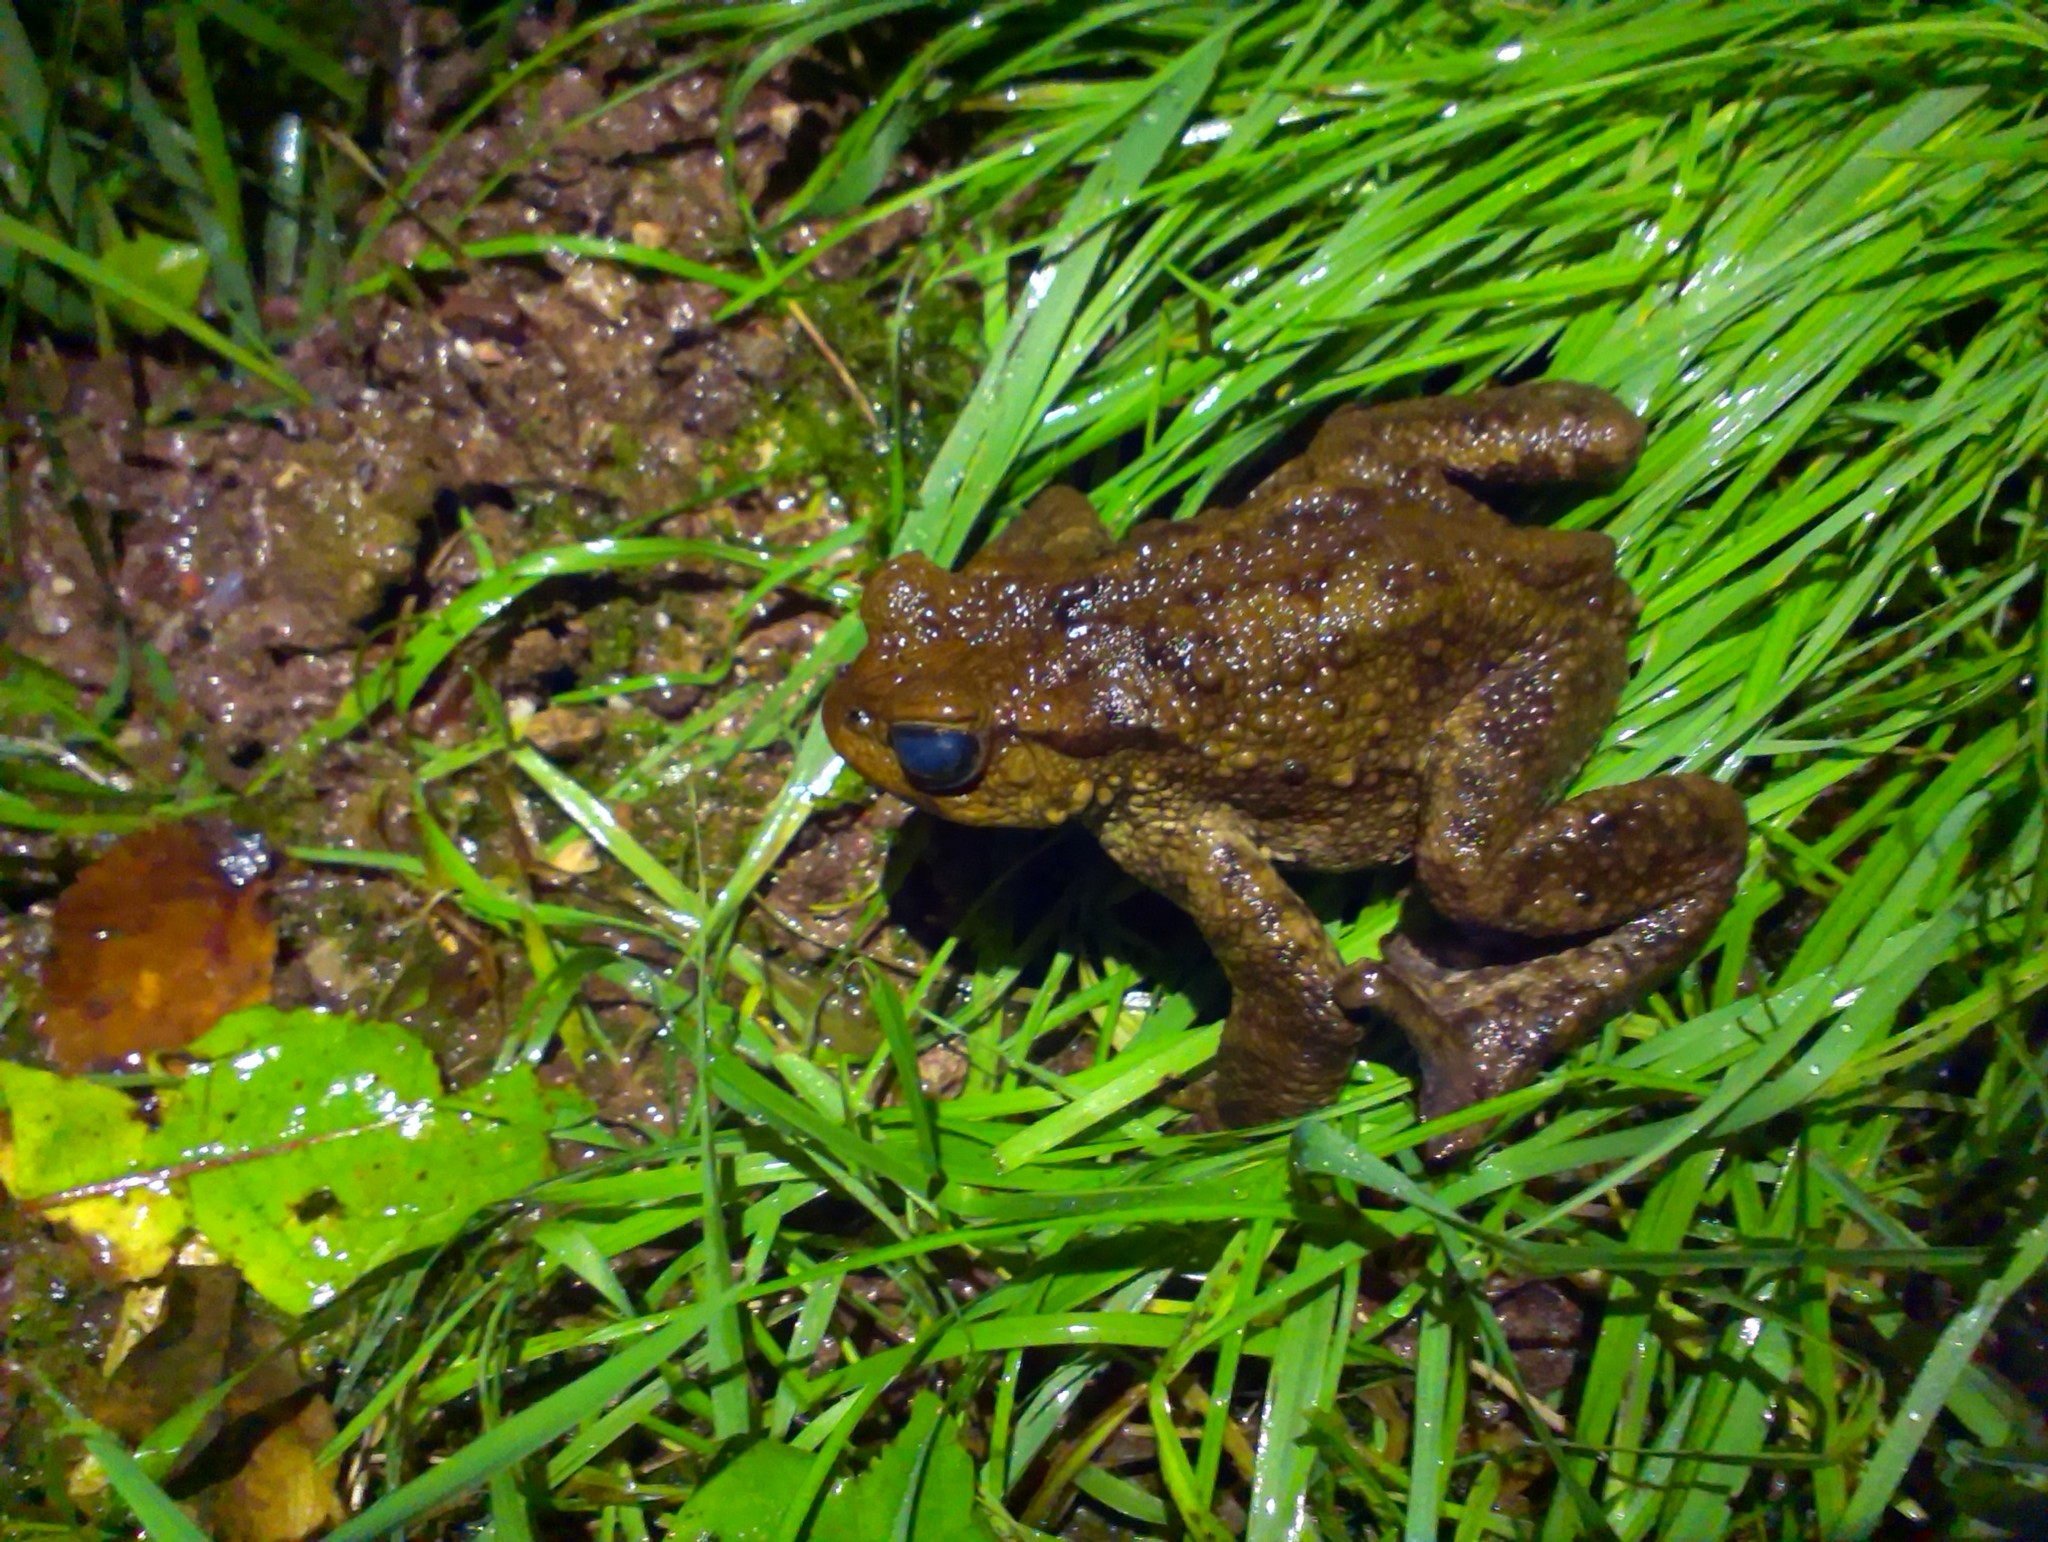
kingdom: Animalia
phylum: Chordata
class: Amphibia
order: Anura
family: Bufonidae
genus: Bufo
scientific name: Bufo bufo
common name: Common toad
